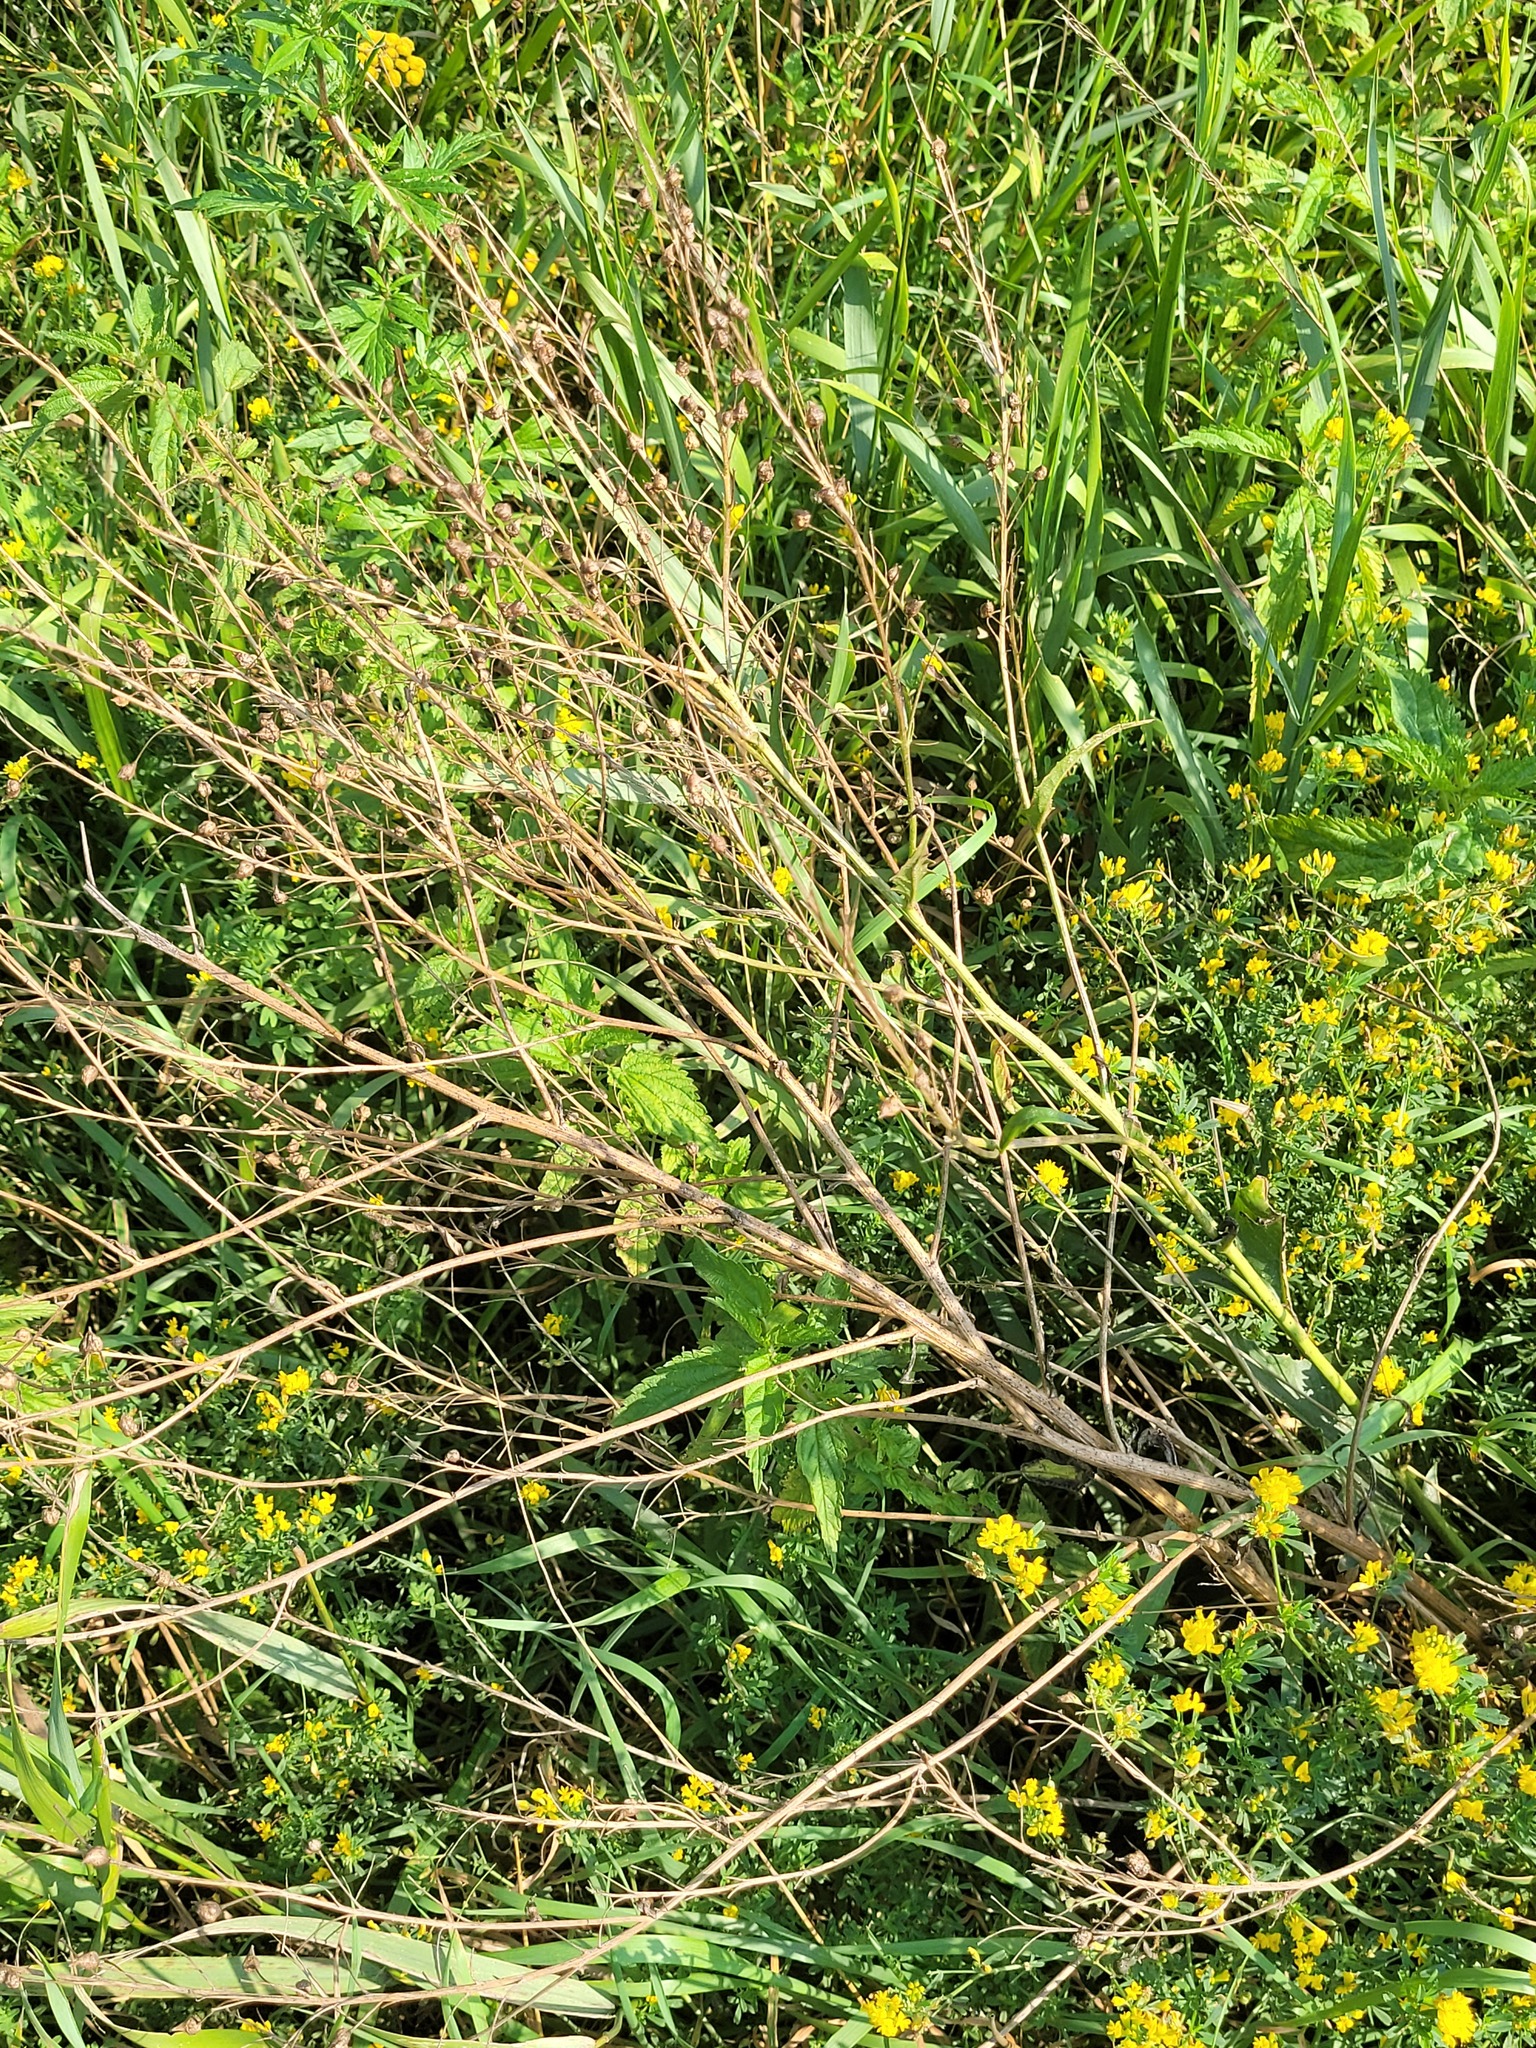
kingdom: Plantae
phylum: Tracheophyta
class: Magnoliopsida
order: Brassicales
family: Brassicaceae
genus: Bunias
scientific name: Bunias orientalis
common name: Warty-cabbage
